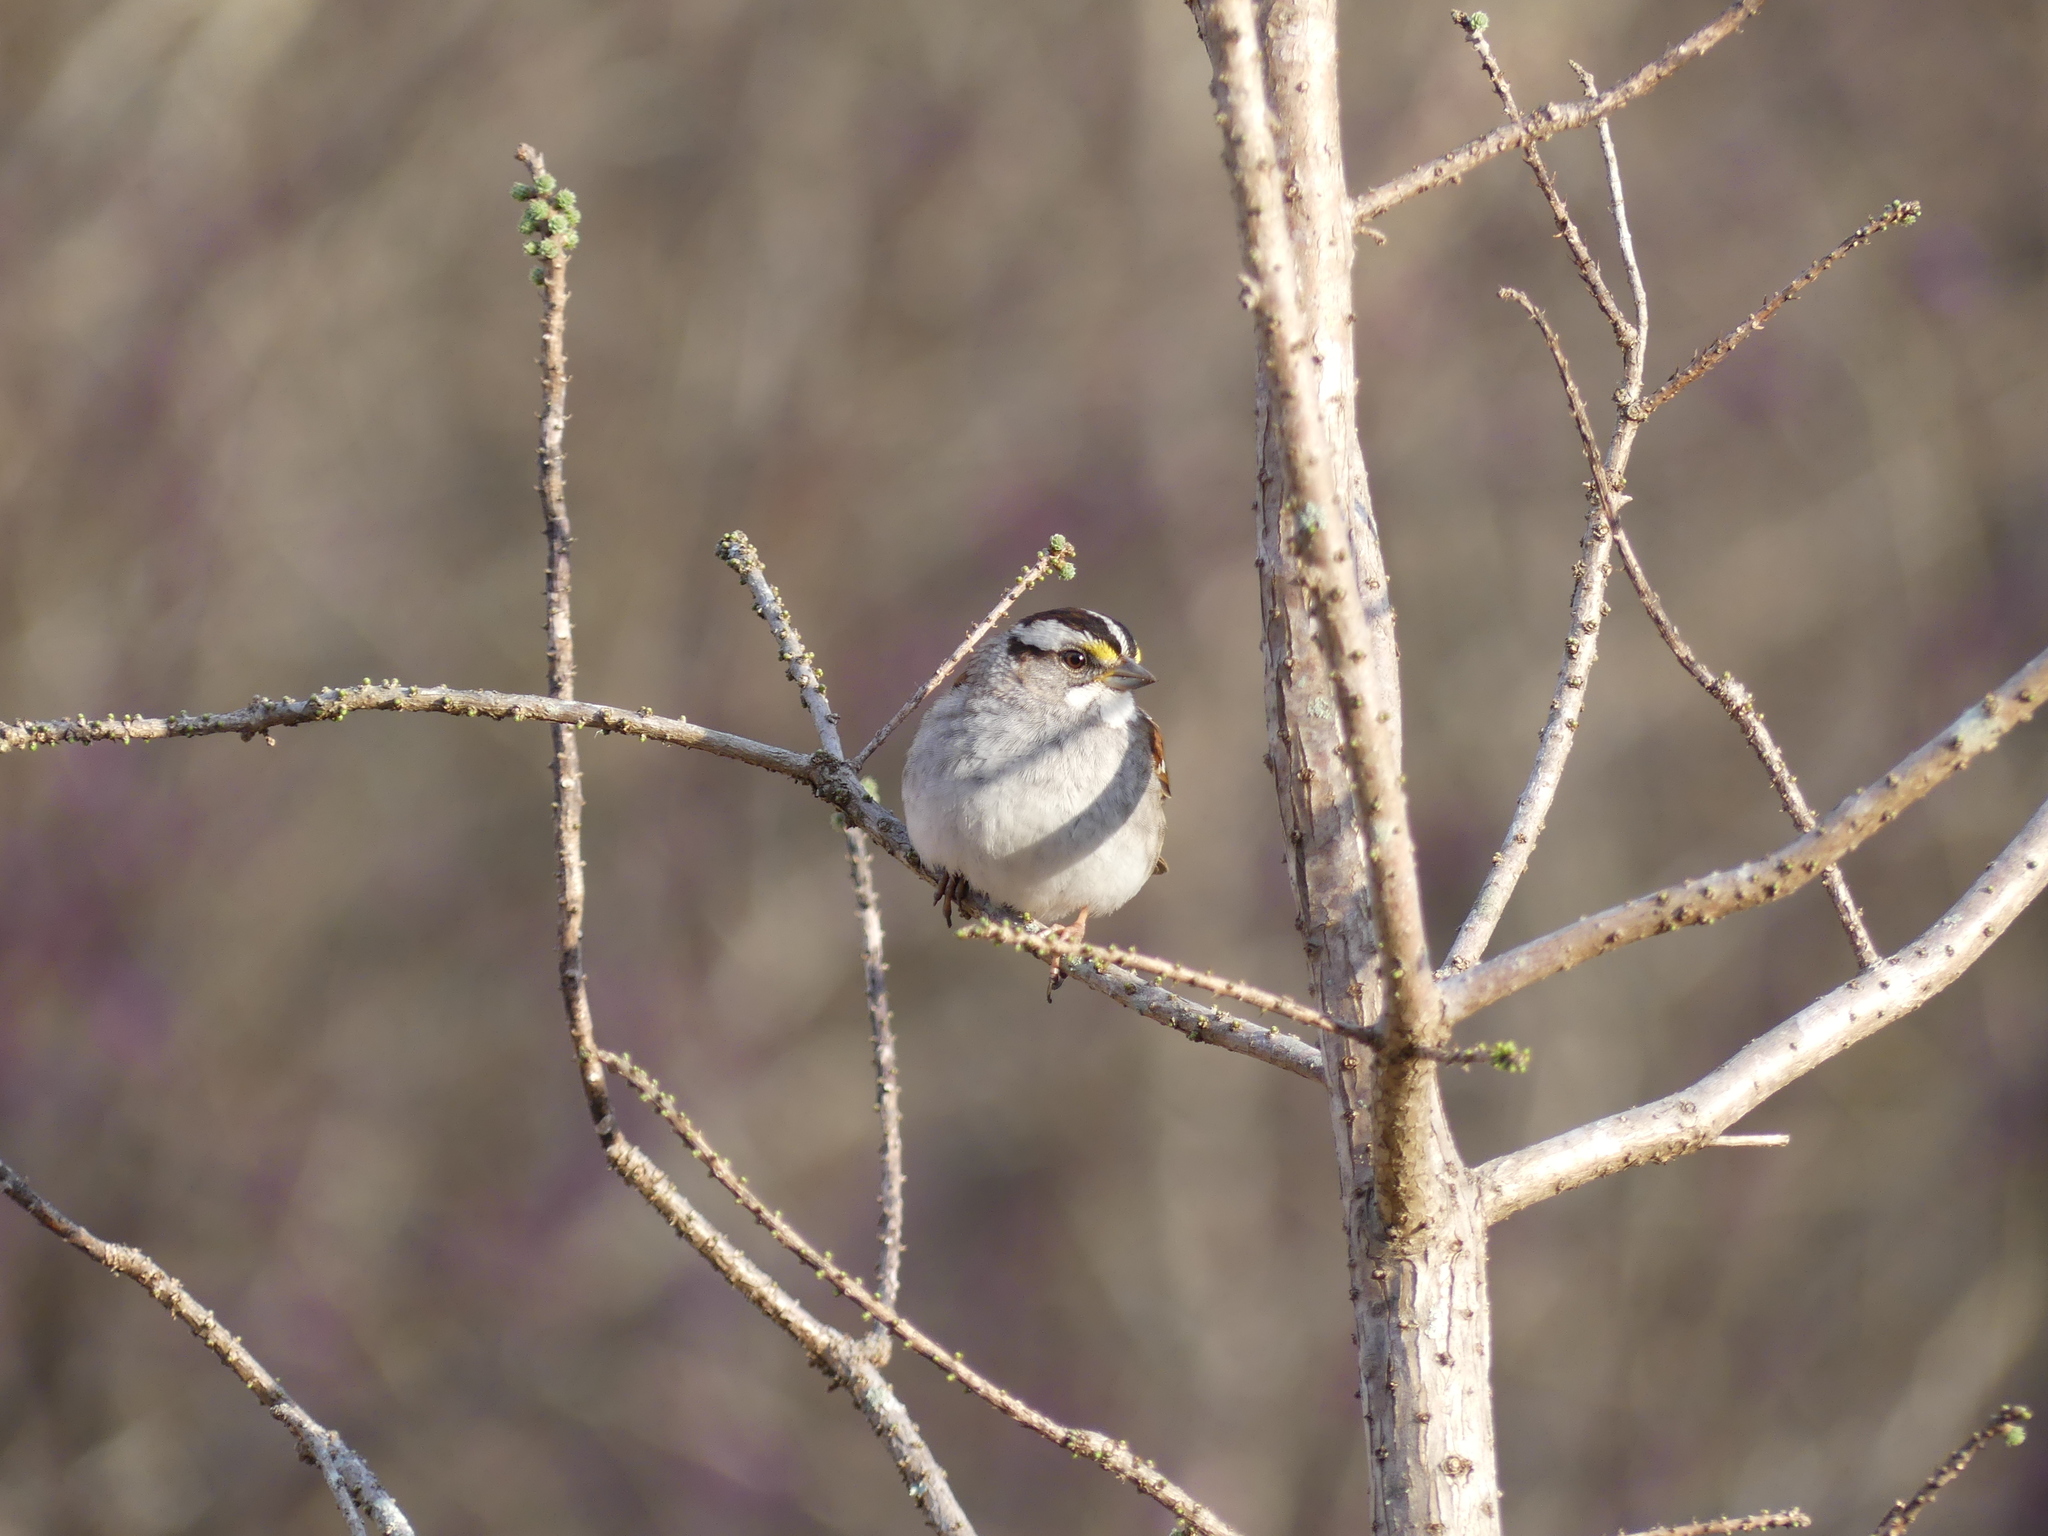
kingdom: Animalia
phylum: Chordata
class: Aves
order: Passeriformes
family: Passerellidae
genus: Zonotrichia
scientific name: Zonotrichia albicollis
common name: White-throated sparrow
